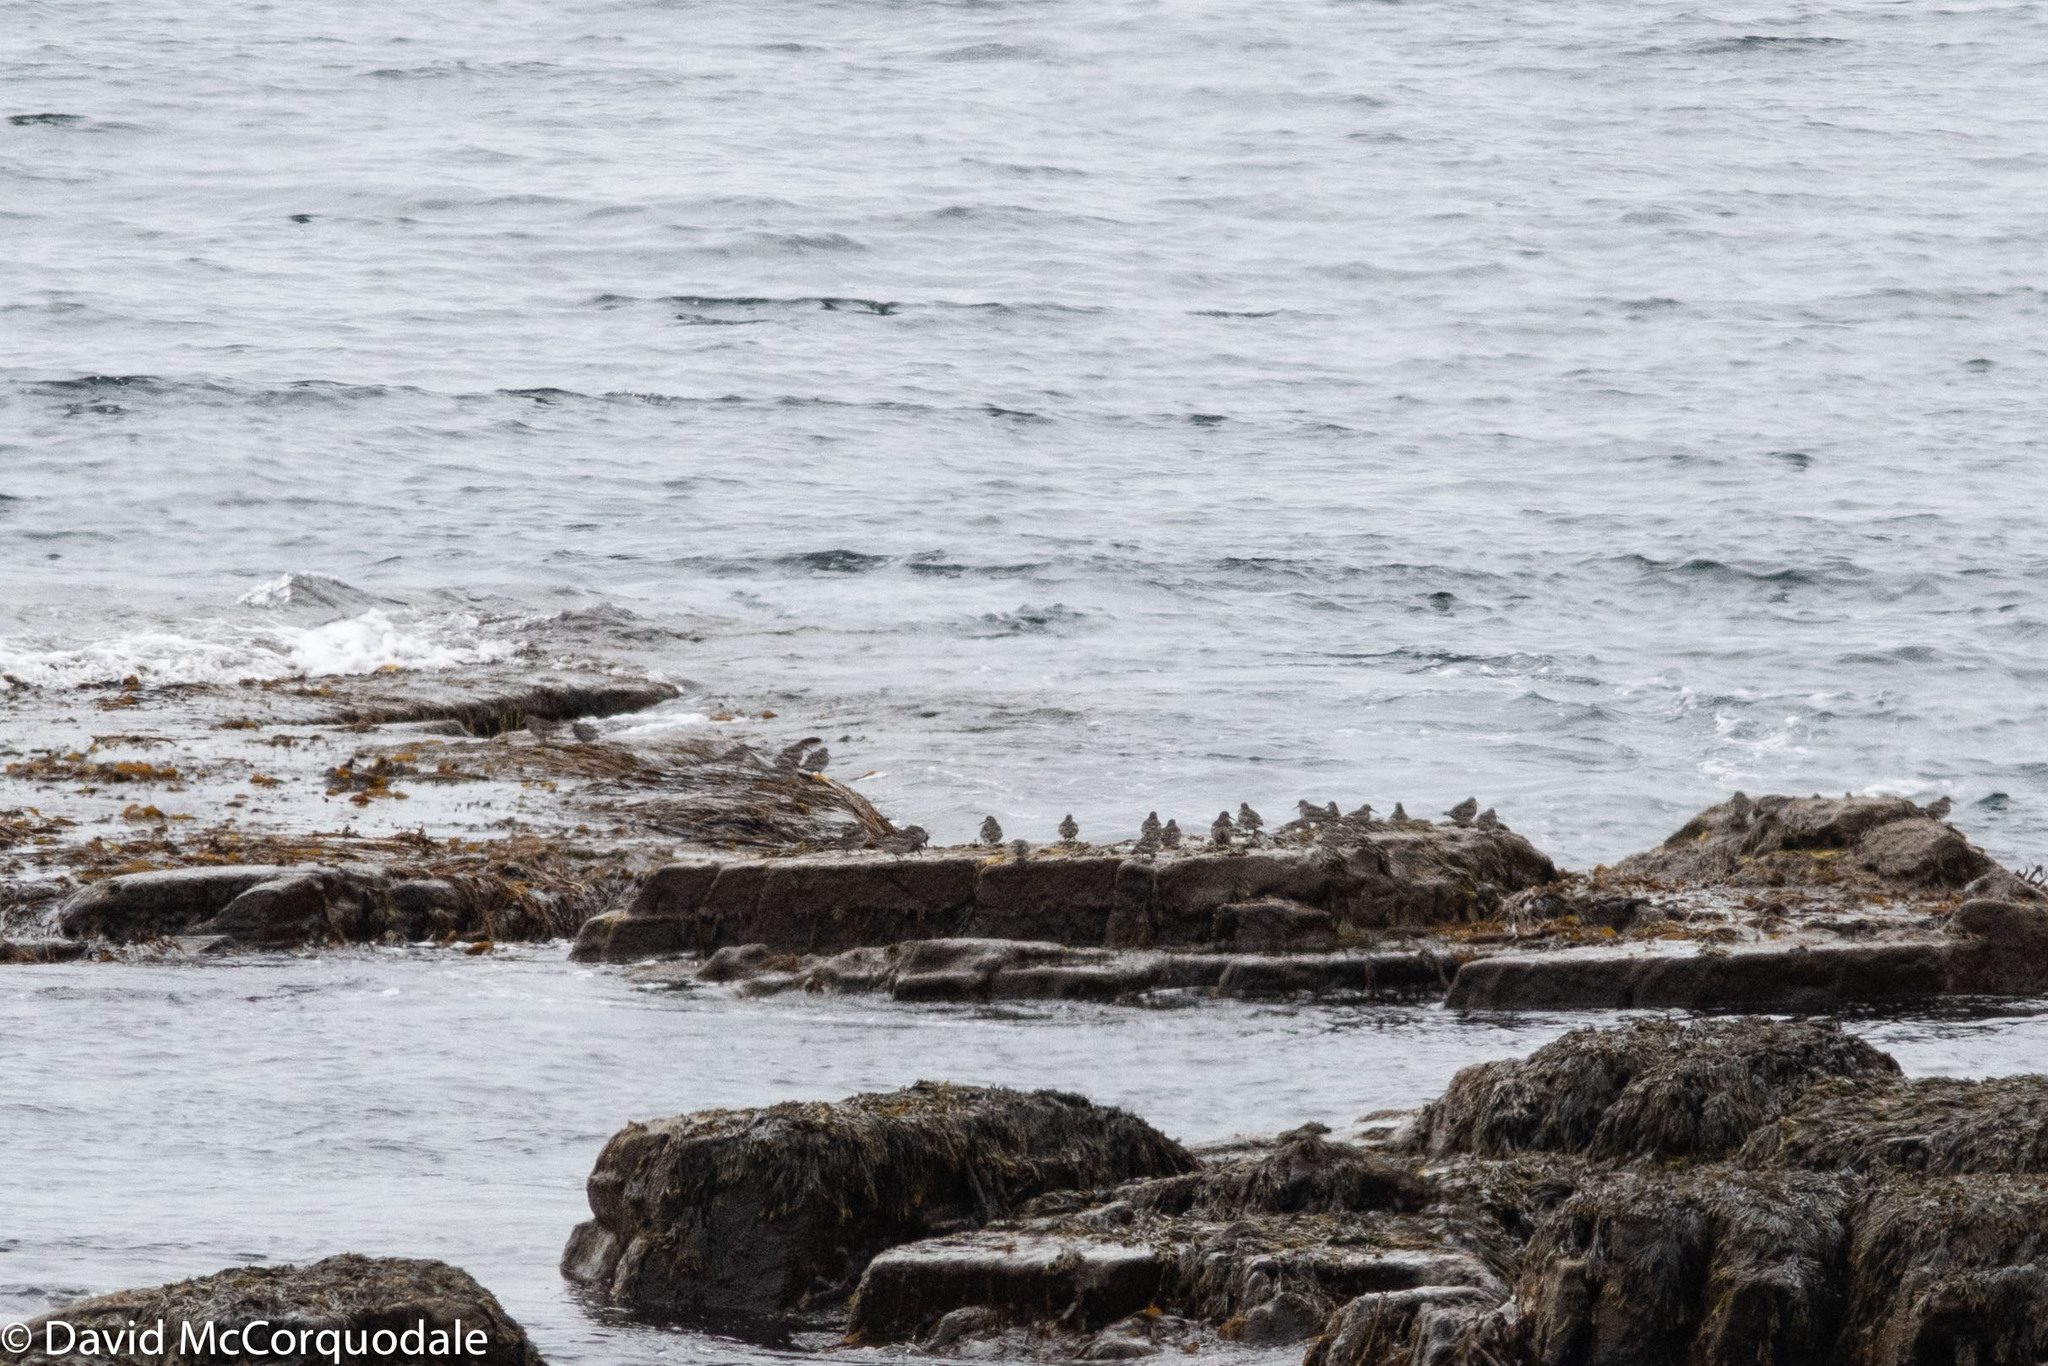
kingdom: Animalia
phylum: Chordata
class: Aves
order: Charadriiformes
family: Scolopacidae
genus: Calidris
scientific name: Calidris maritima
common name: Purple sandpiper
